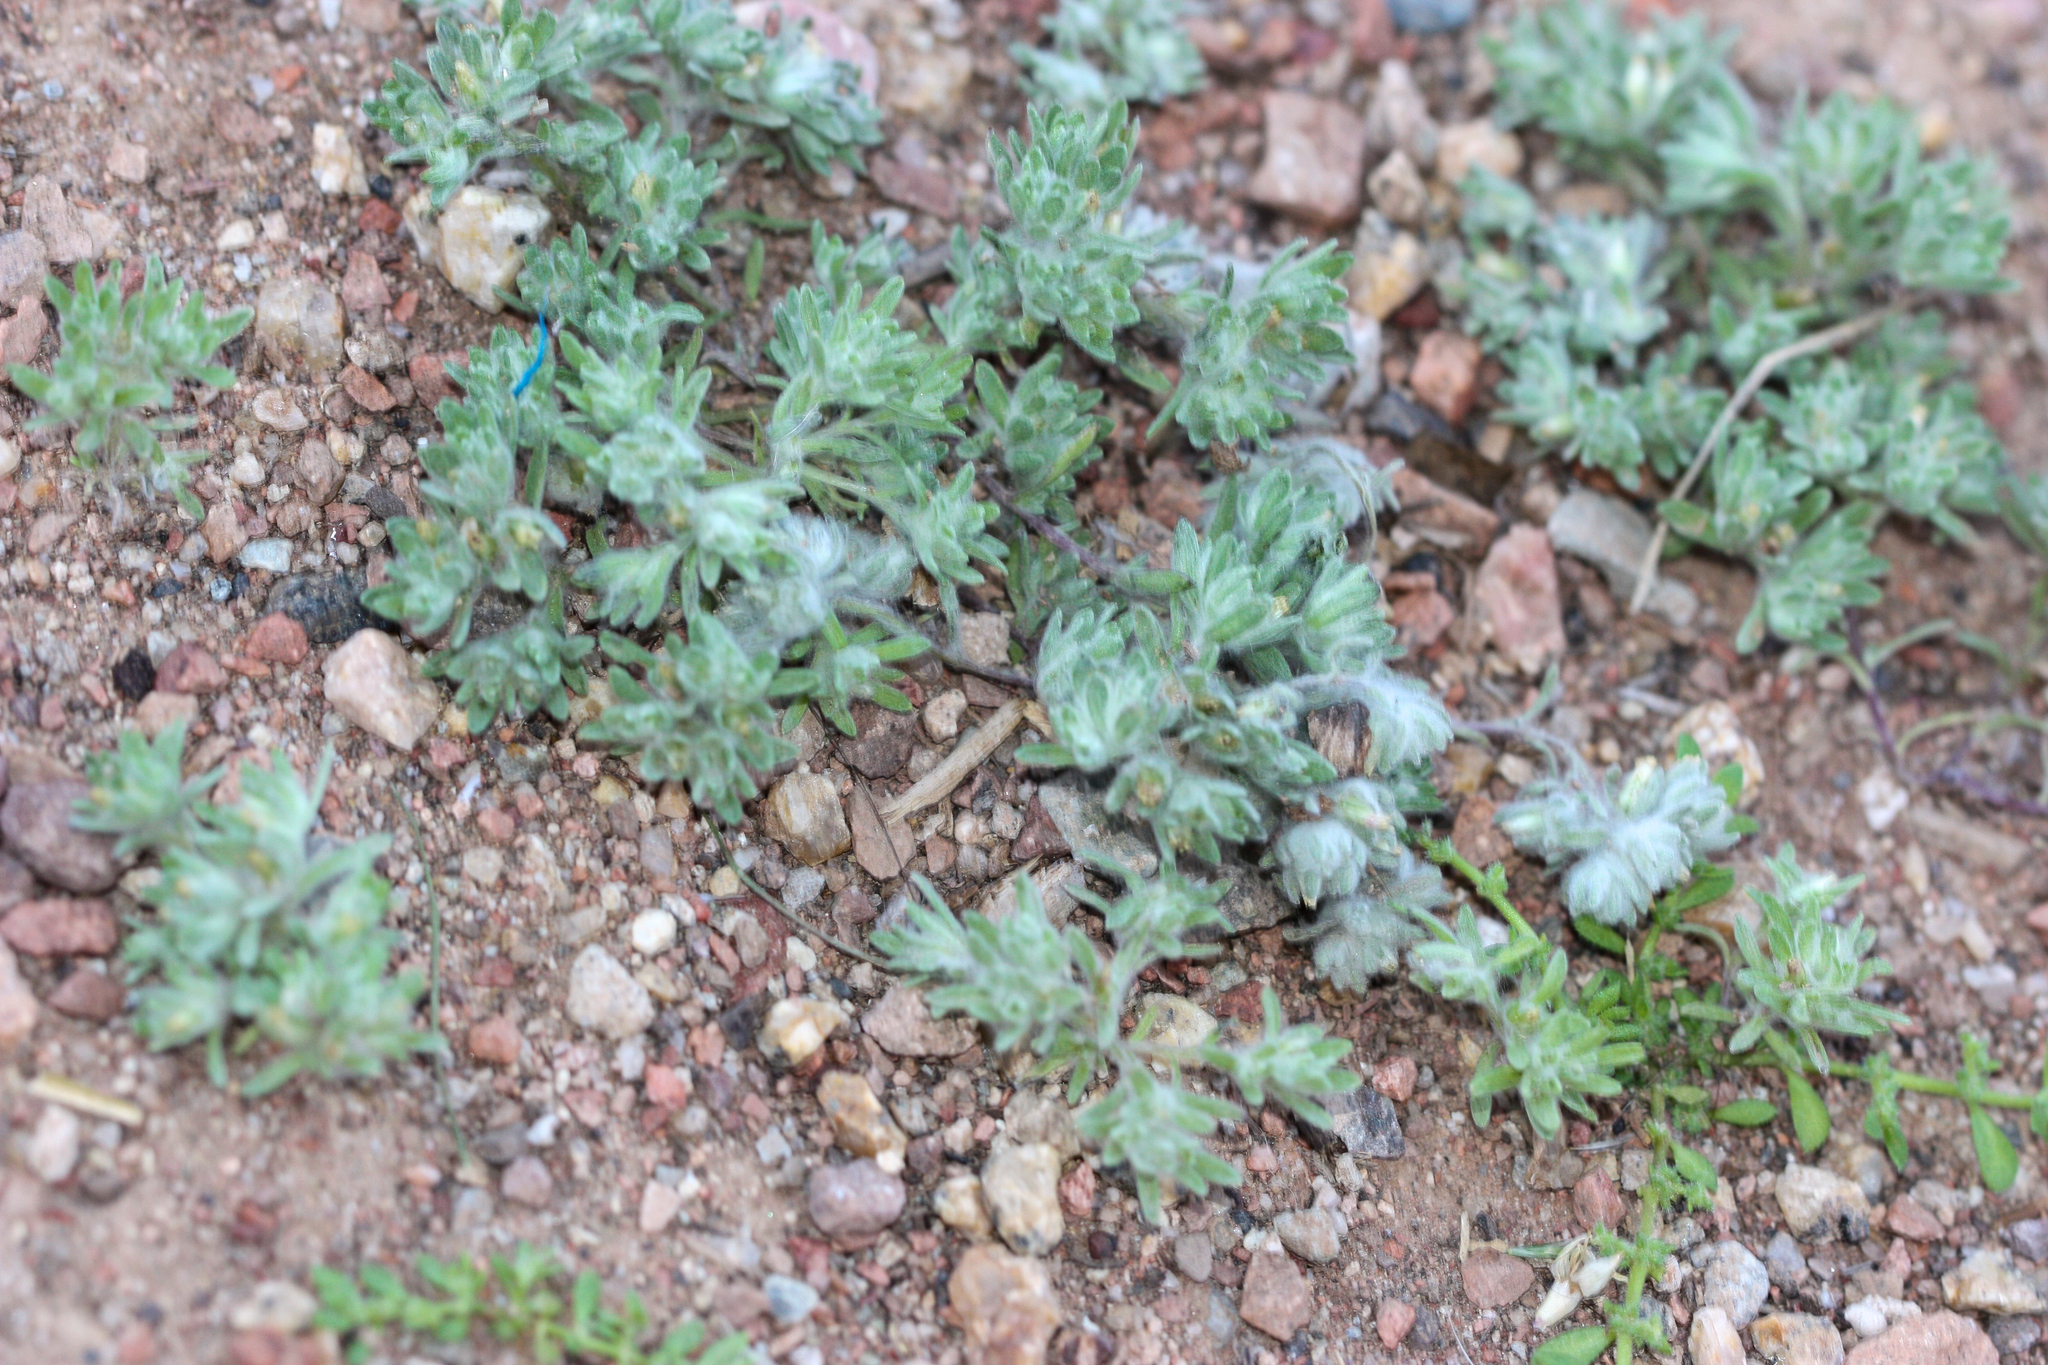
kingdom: Plantae
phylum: Tracheophyta
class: Magnoliopsida
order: Asterales
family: Asteraceae
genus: Lasiopogon
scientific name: Lasiopogon glomerulatus
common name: Green cat thorn
